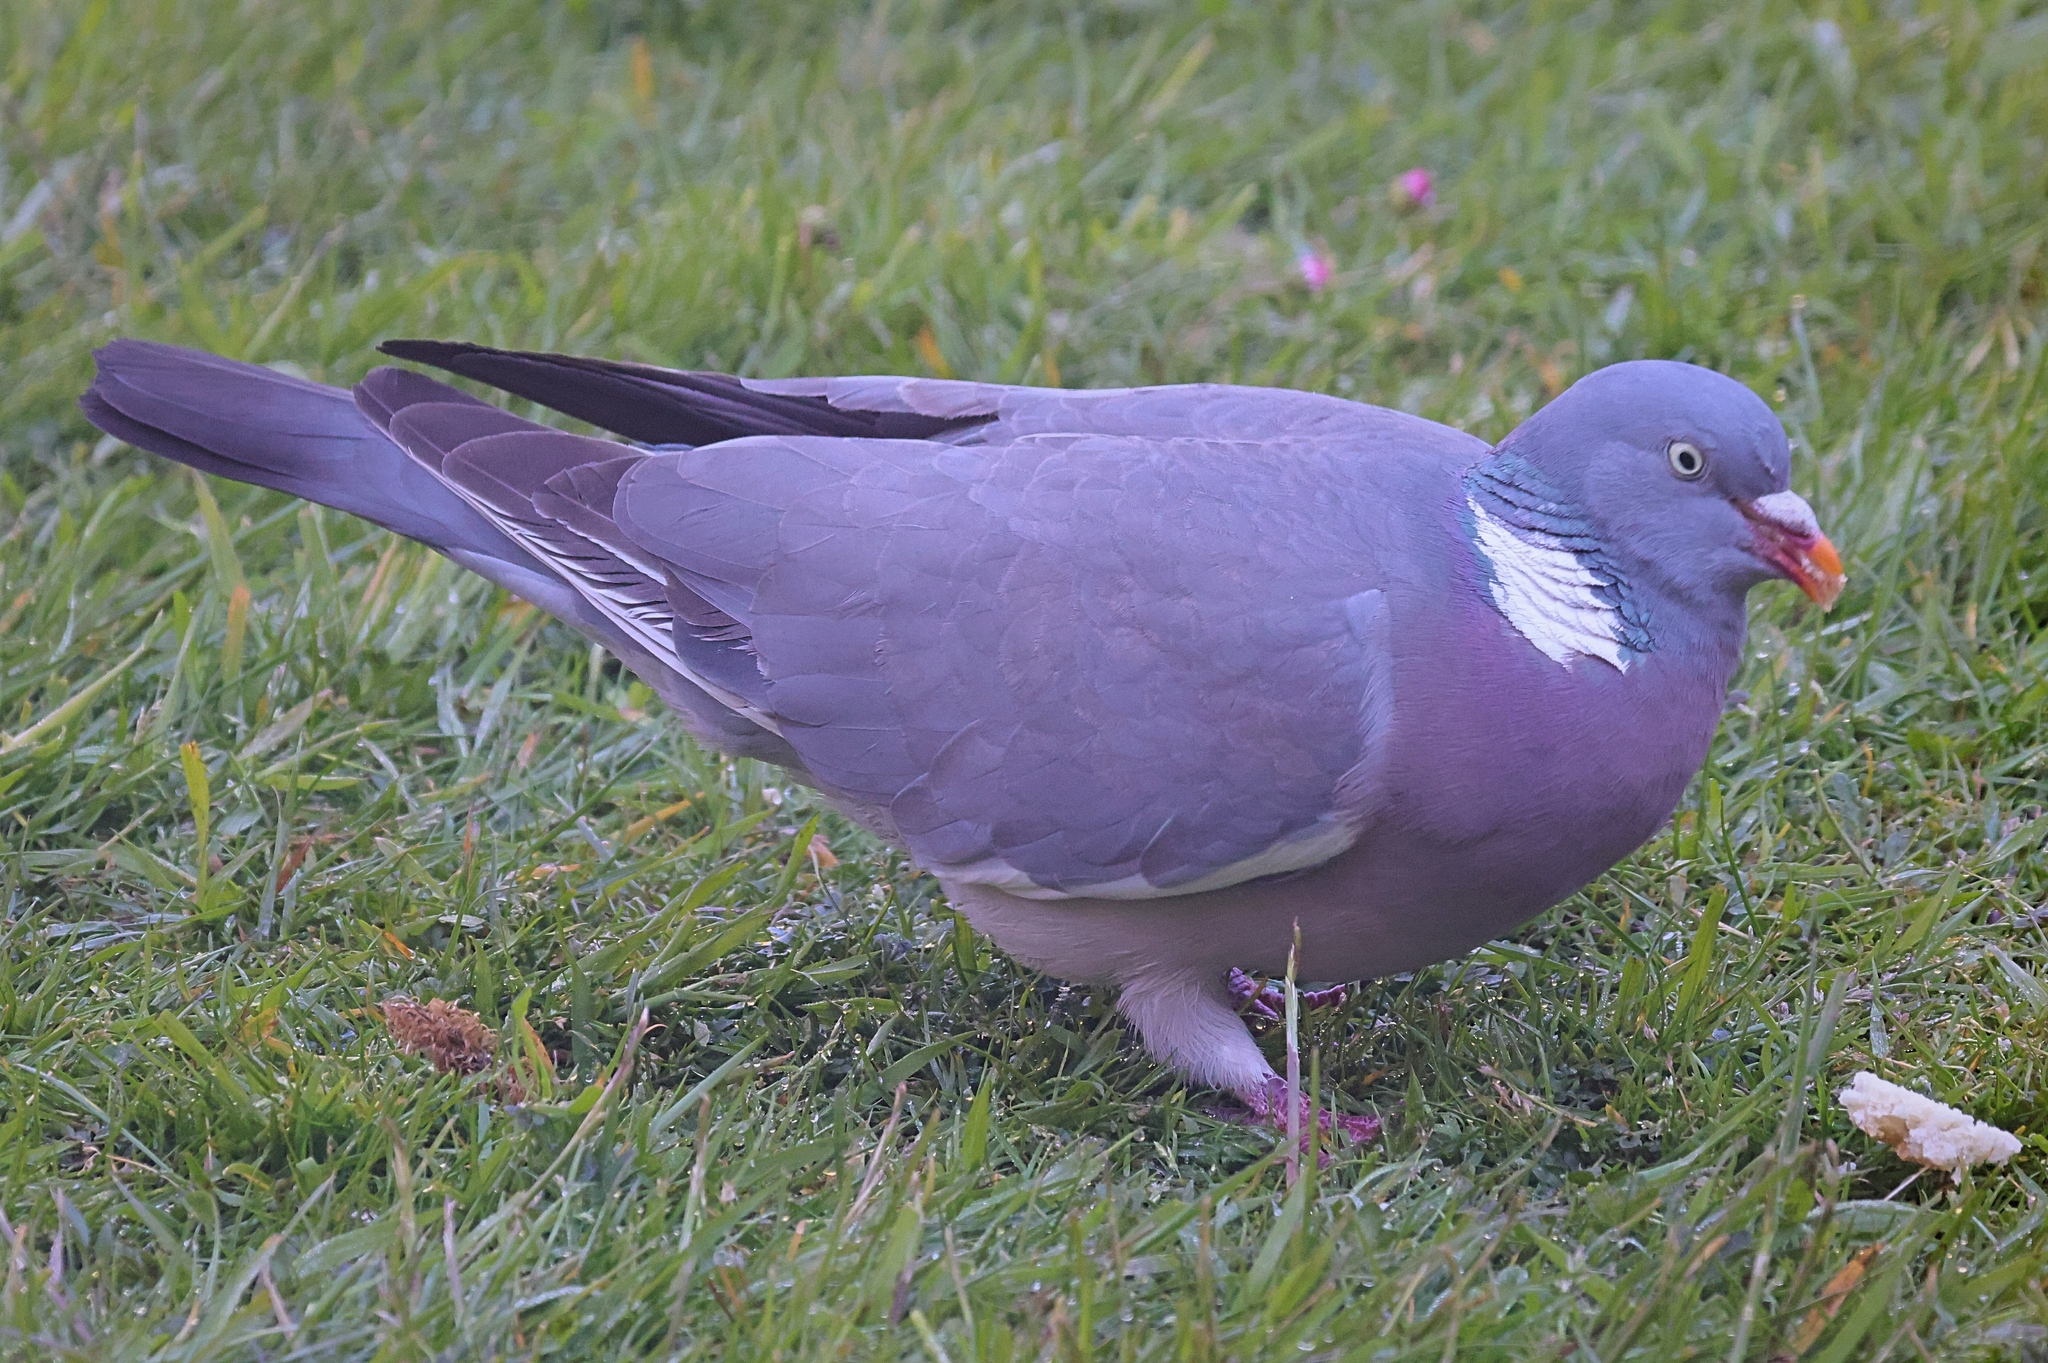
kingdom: Animalia
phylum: Chordata
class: Aves
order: Columbiformes
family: Columbidae
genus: Columba
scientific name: Columba palumbus
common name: Common wood pigeon
